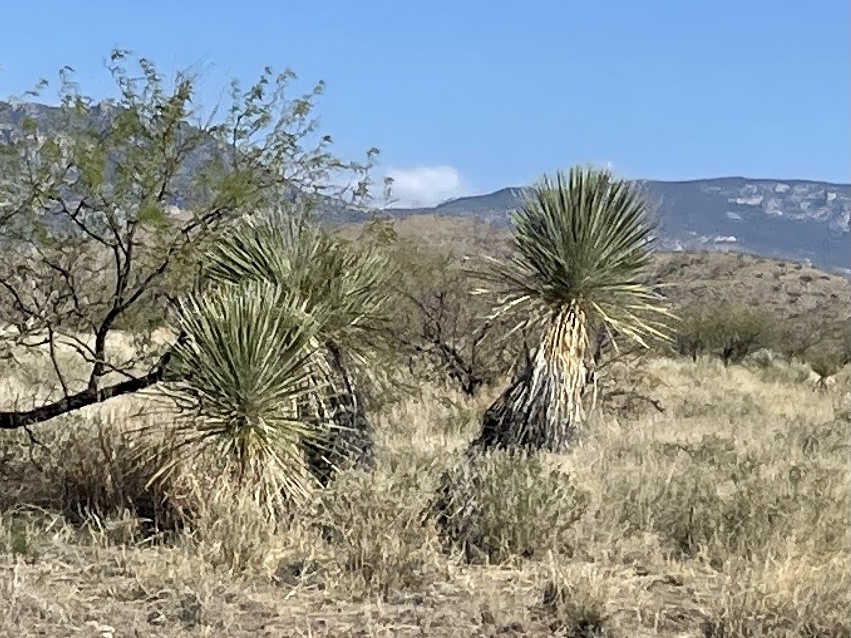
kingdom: Plantae
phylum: Tracheophyta
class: Liliopsida
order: Asparagales
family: Asparagaceae
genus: Yucca
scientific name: Yucca elata
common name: Palmella
